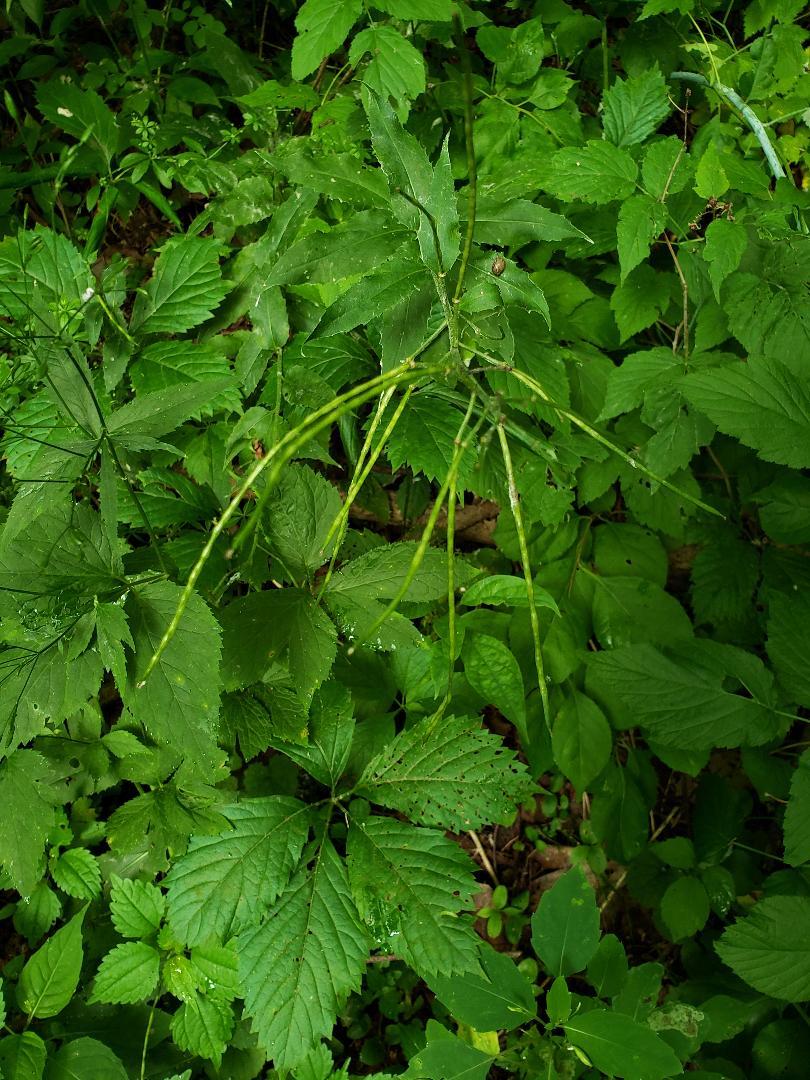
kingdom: Plantae
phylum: Tracheophyta
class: Magnoliopsida
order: Brassicales
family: Brassicaceae
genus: Hesperis
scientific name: Hesperis matronalis
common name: Dame's-violet
